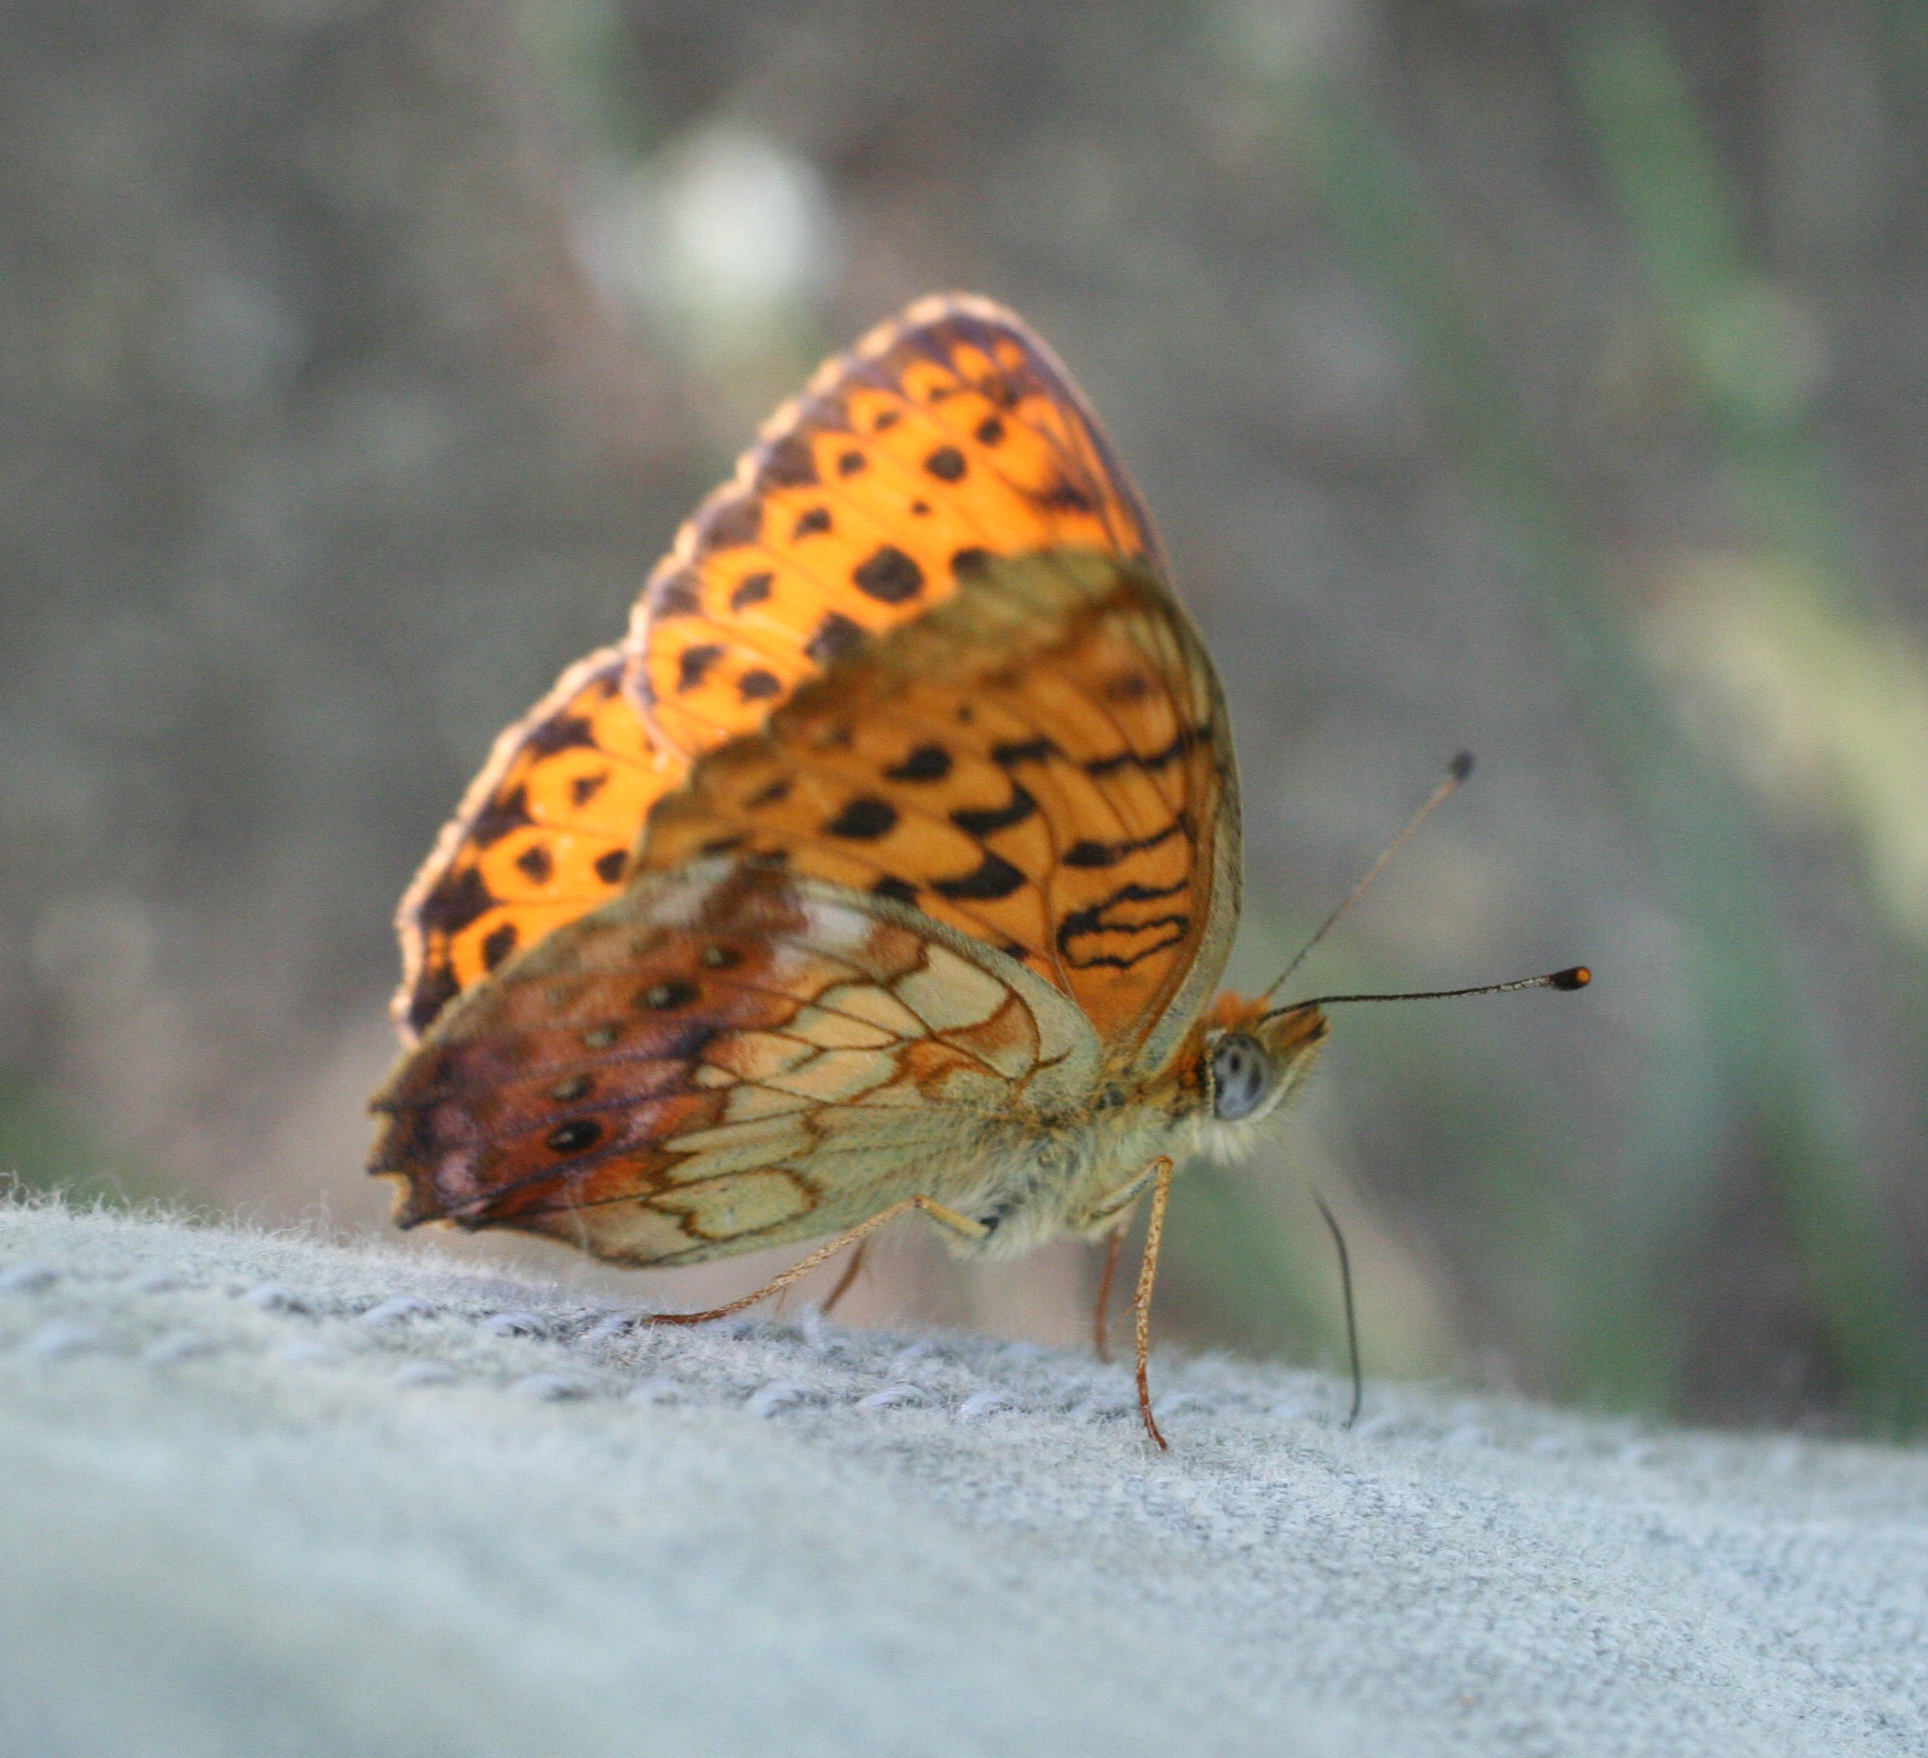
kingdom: Animalia
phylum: Arthropoda
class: Insecta
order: Lepidoptera
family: Nymphalidae
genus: Brenthis
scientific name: Brenthis daphne
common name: Marbled fritillary
